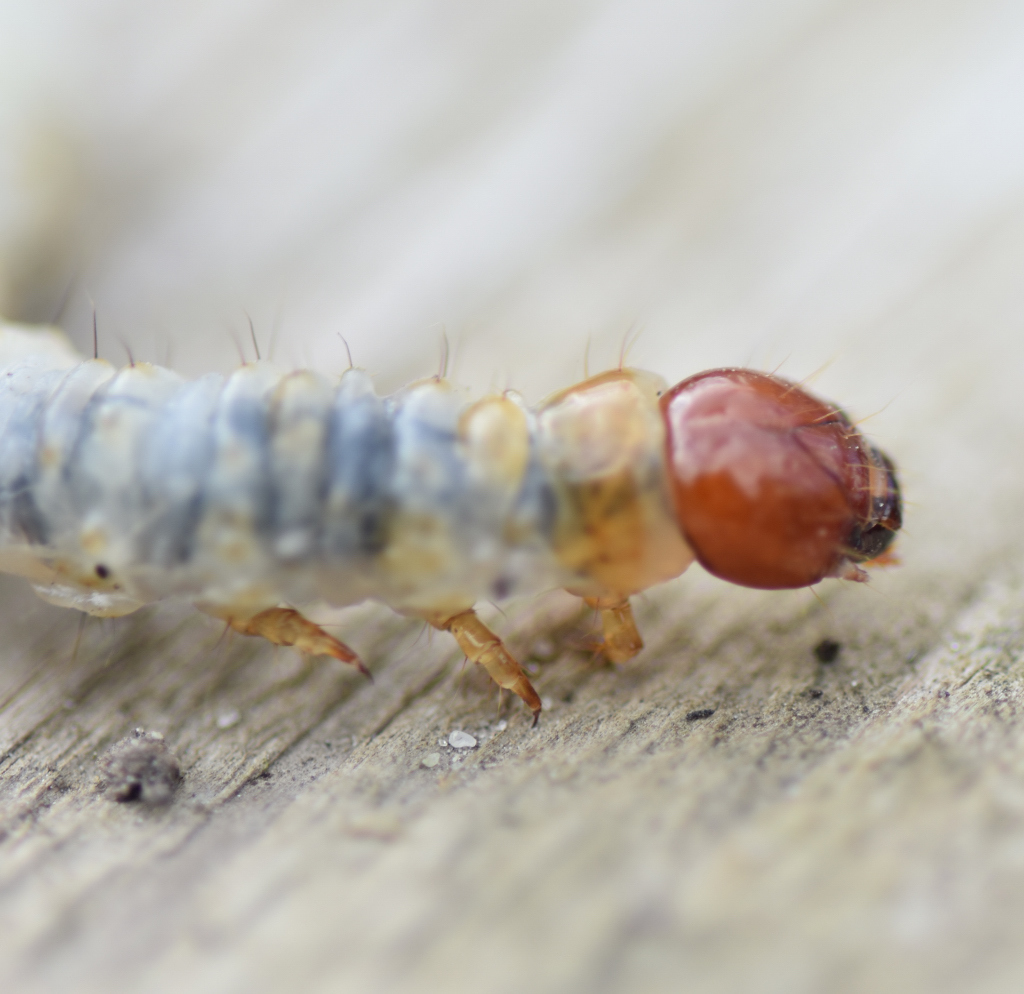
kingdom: Animalia
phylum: Arthropoda
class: Insecta
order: Lepidoptera
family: Hepialidae
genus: Korscheltellus
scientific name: Korscheltellus lupulina
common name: Common swift
